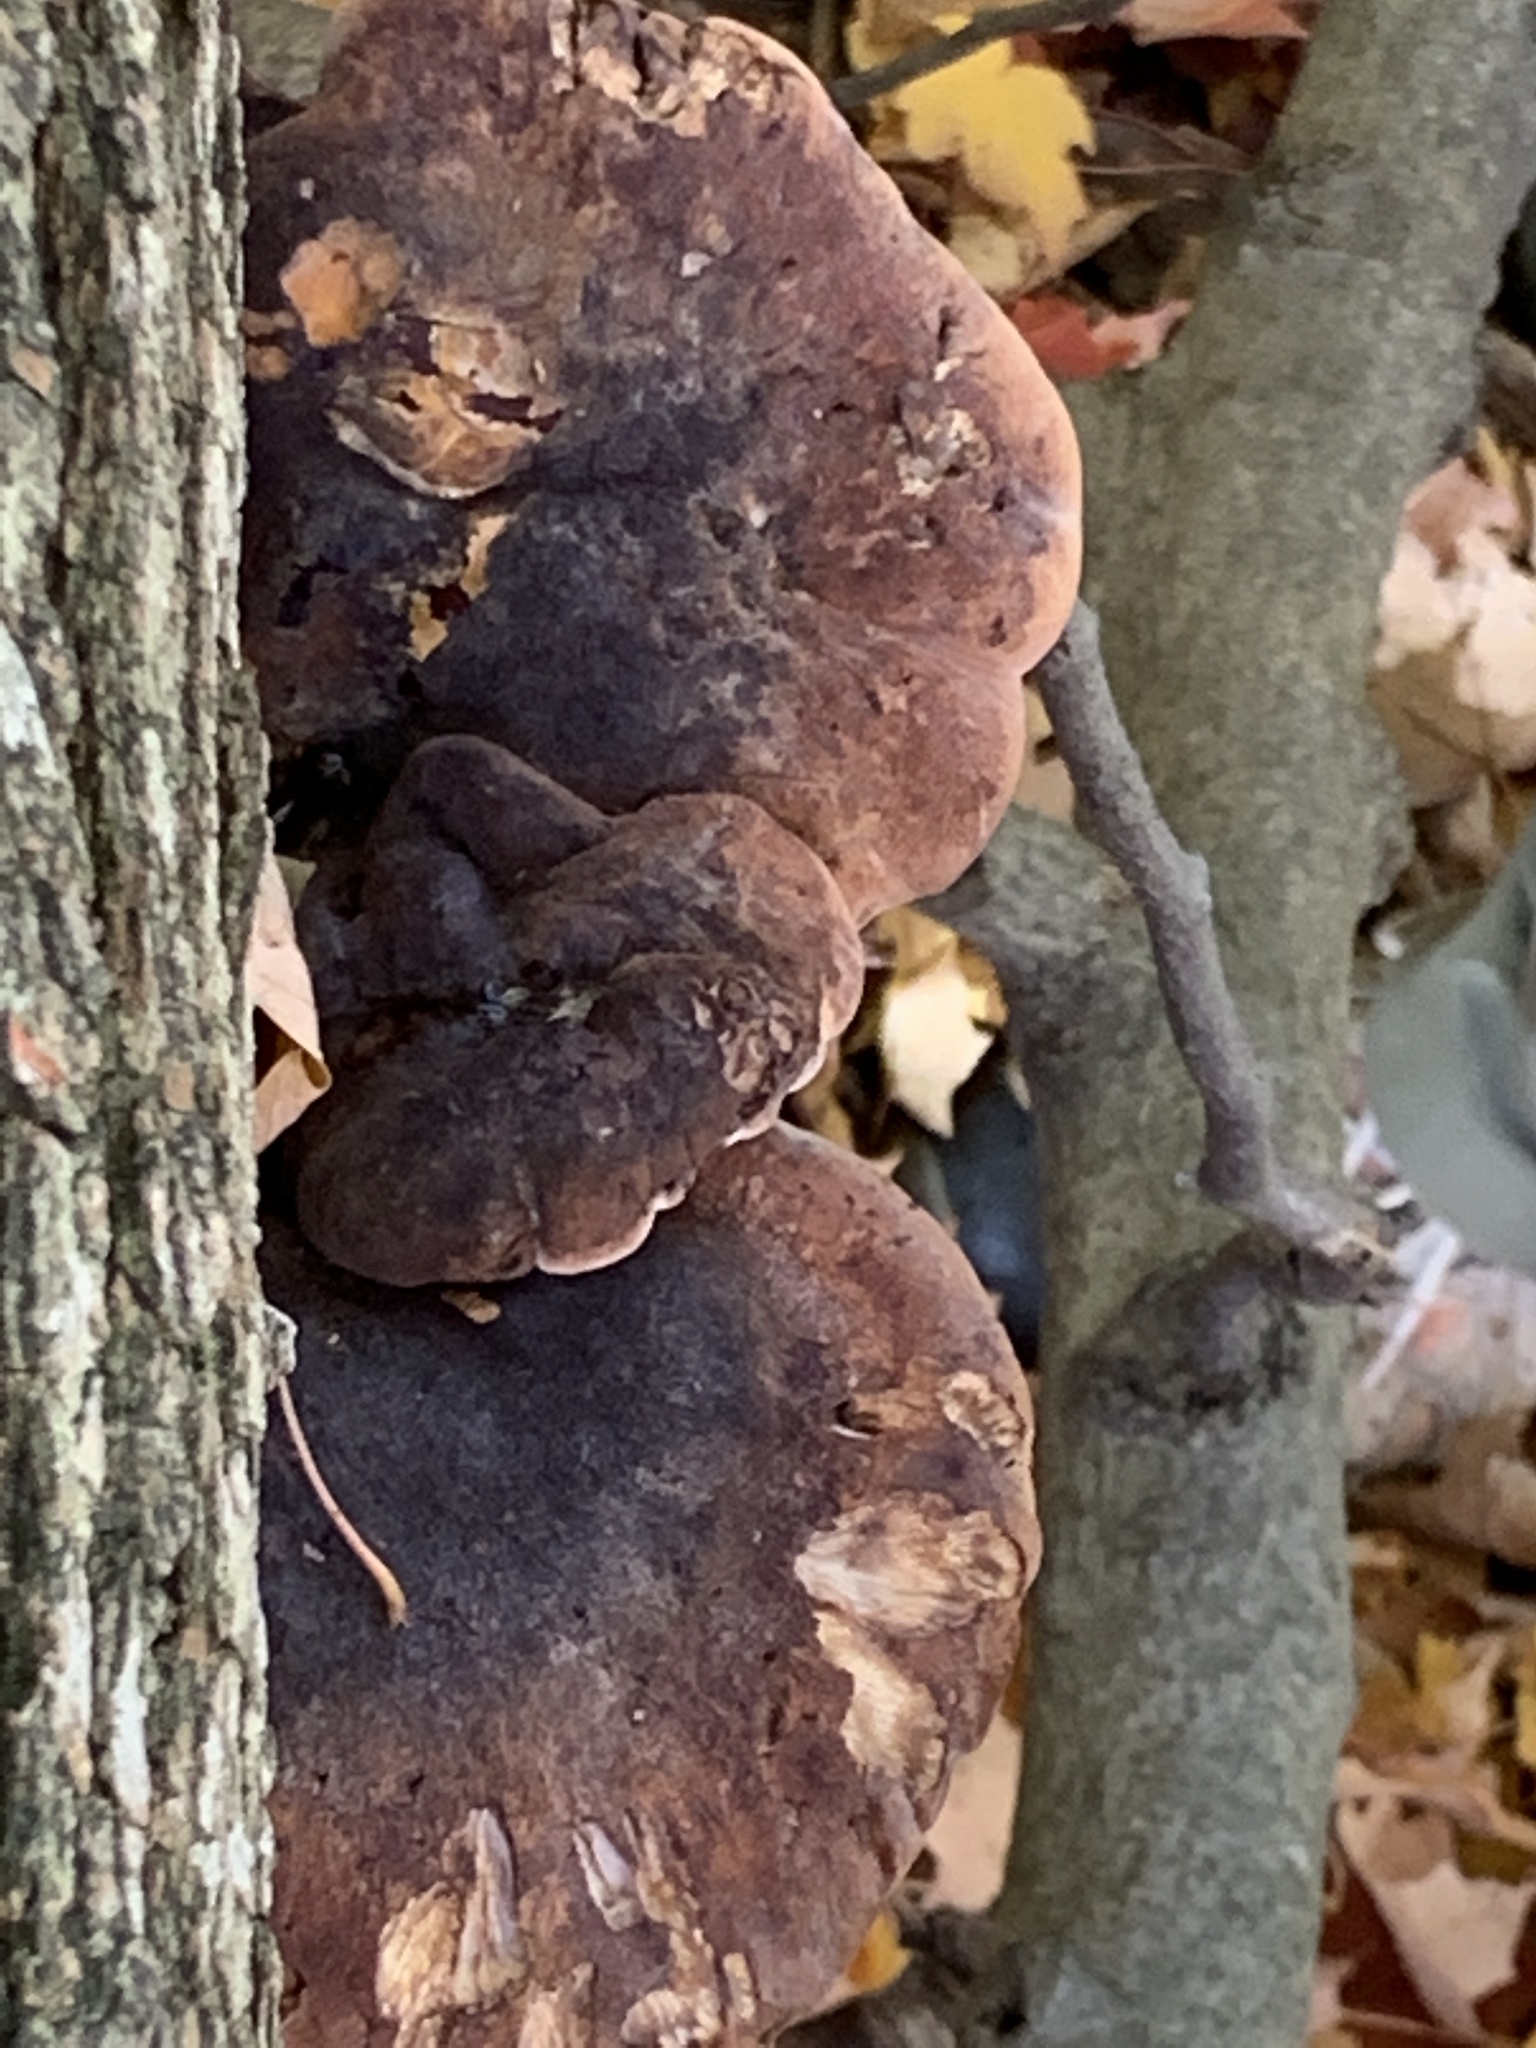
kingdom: Fungi
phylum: Basidiomycota
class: Agaricomycetes
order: Polyporales
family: Ischnodermataceae
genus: Ischnoderma
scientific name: Ischnoderma resinosum
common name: Resinous polypore
